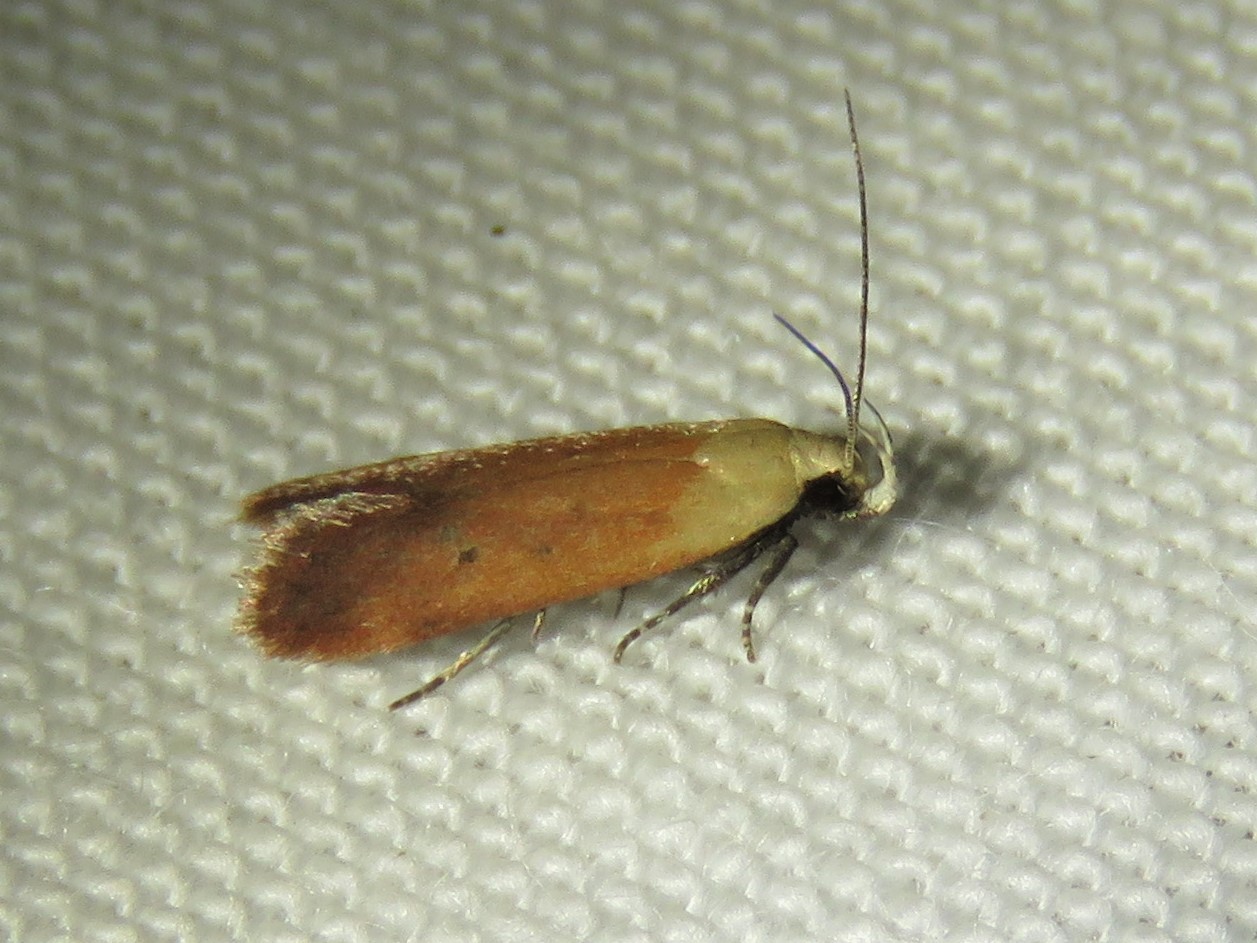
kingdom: Animalia
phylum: Arthropoda
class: Insecta
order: Lepidoptera
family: Gelechiidae
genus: Anacampsis
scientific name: Anacampsis fullonella
